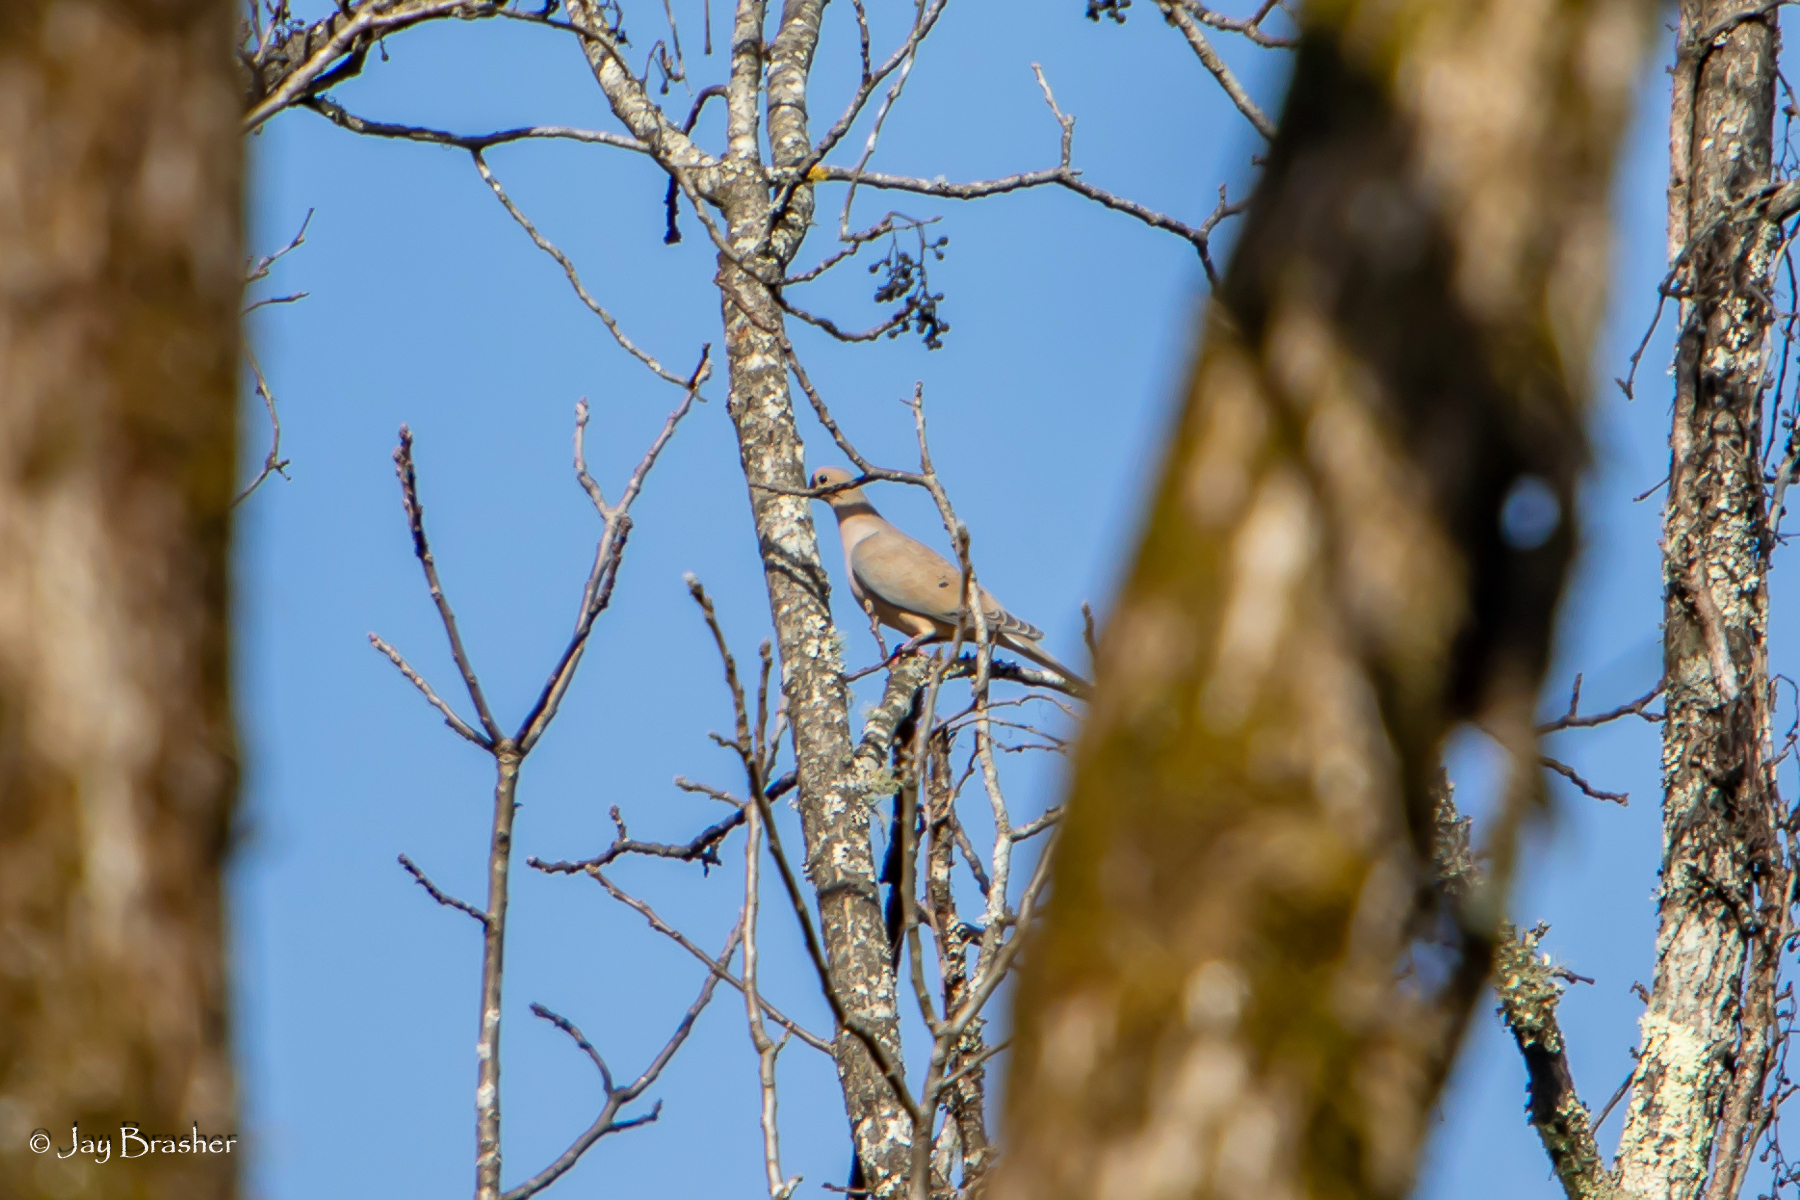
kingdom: Animalia
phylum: Chordata
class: Aves
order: Columbiformes
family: Columbidae
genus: Zenaida
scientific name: Zenaida macroura
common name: Mourning dove
